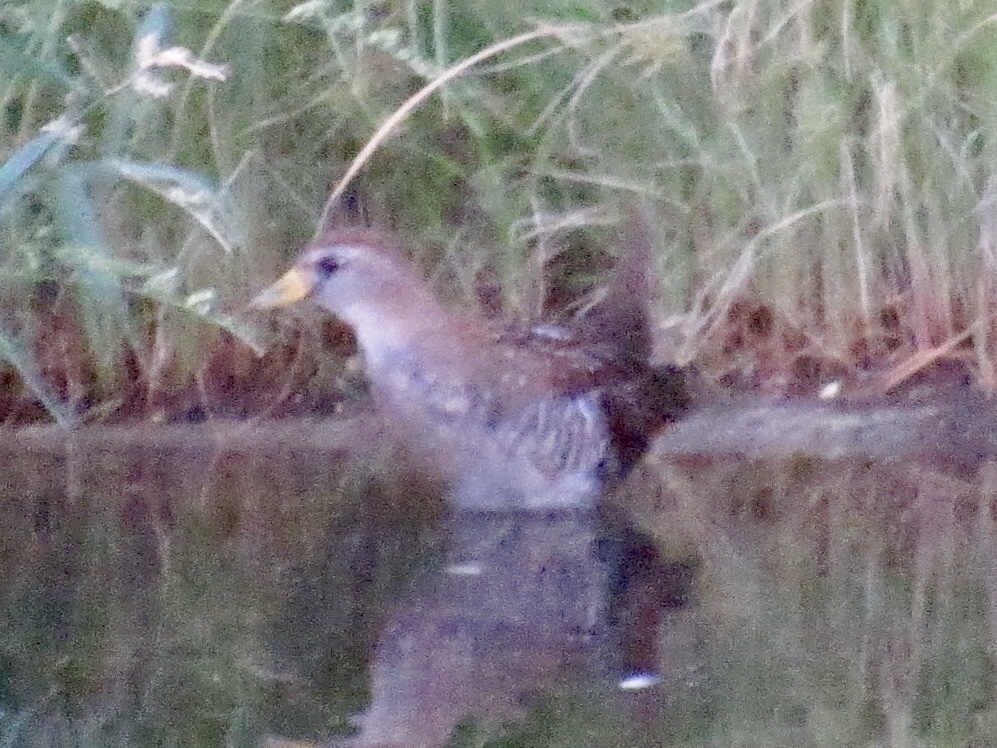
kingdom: Animalia
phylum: Chordata
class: Aves
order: Gruiformes
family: Rallidae
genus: Porzana
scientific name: Porzana carolina
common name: Sora
